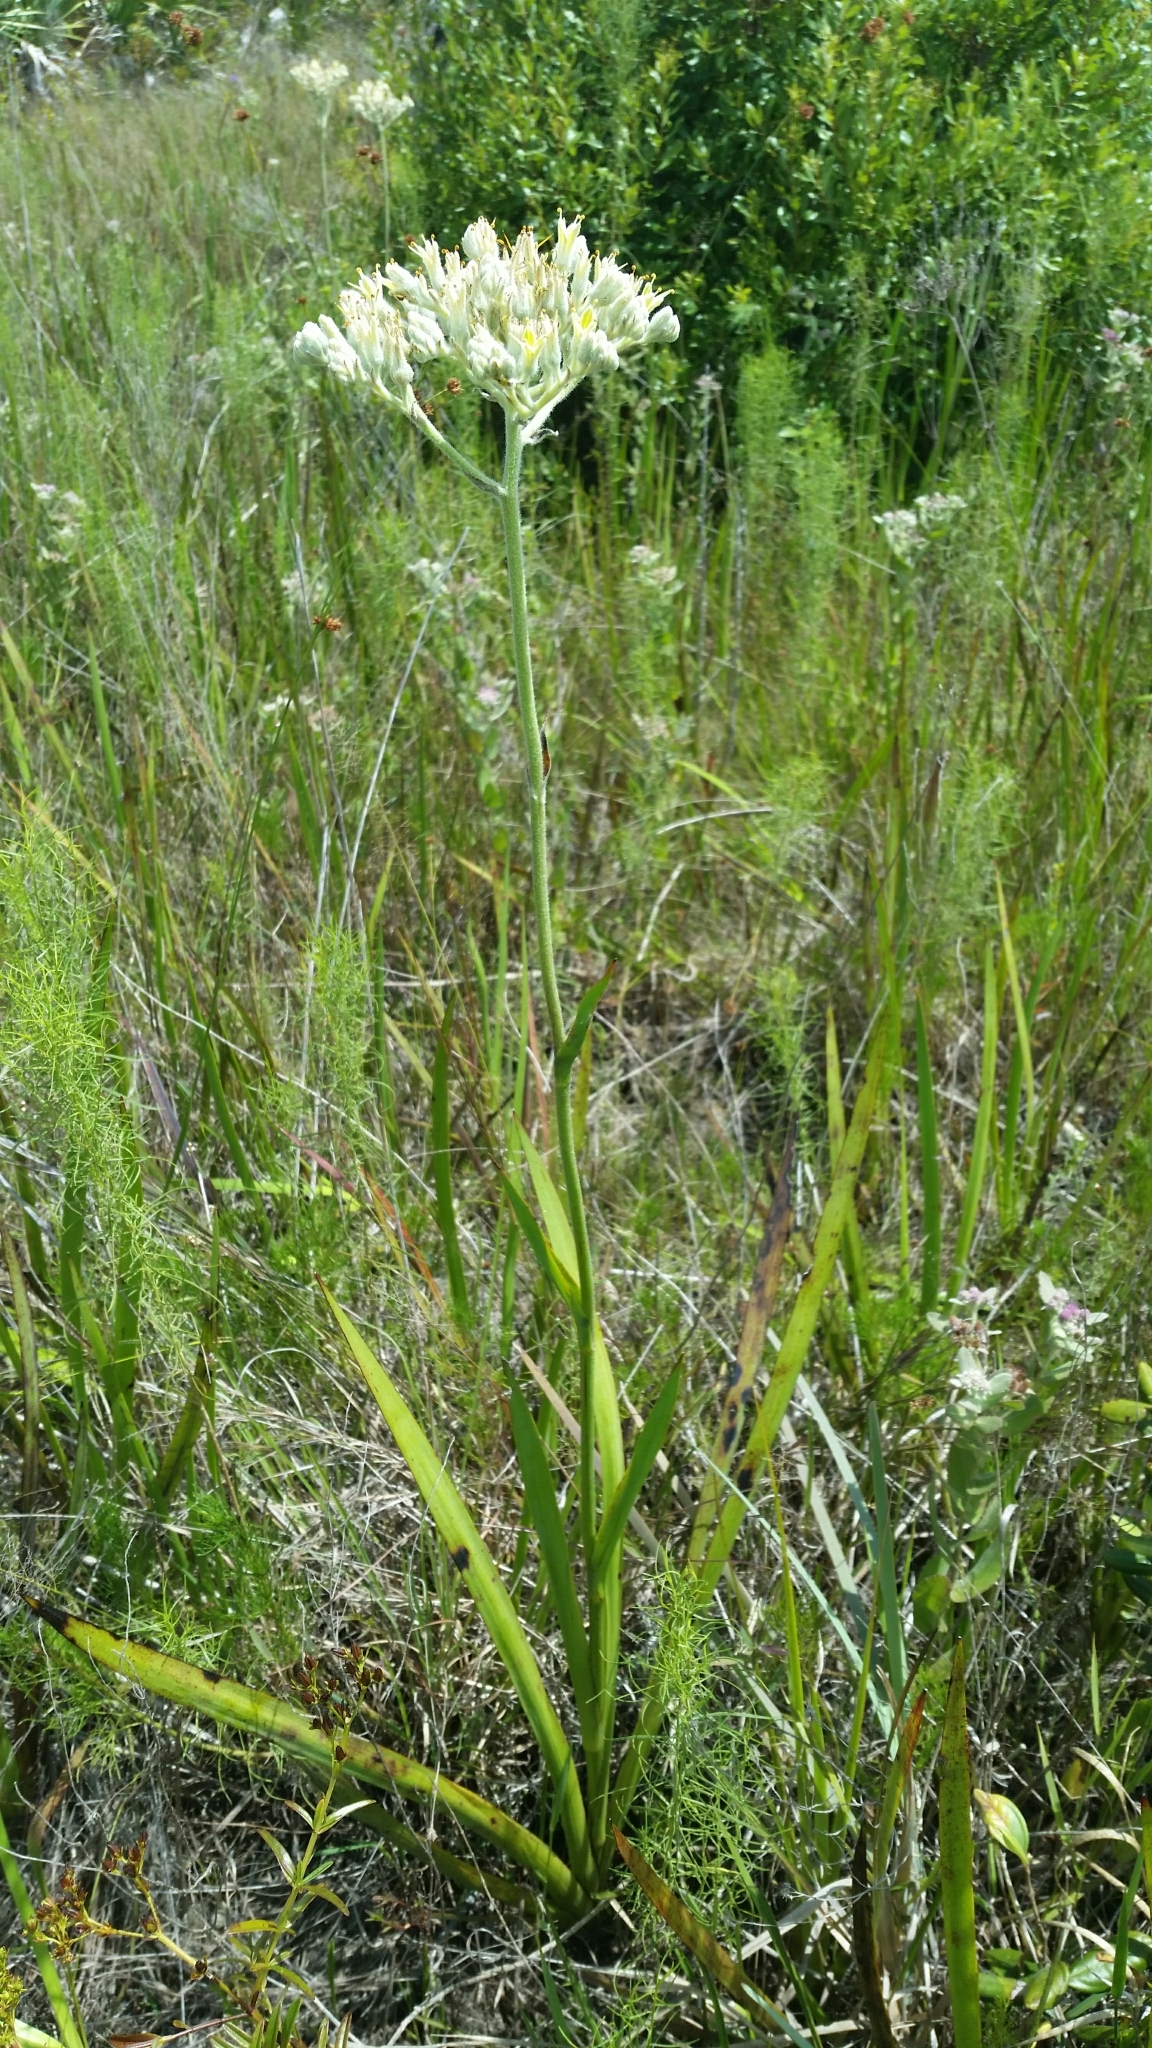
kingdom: Plantae
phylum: Tracheophyta
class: Liliopsida
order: Commelinales
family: Haemodoraceae
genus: Lachnanthes
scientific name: Lachnanthes caroliana
